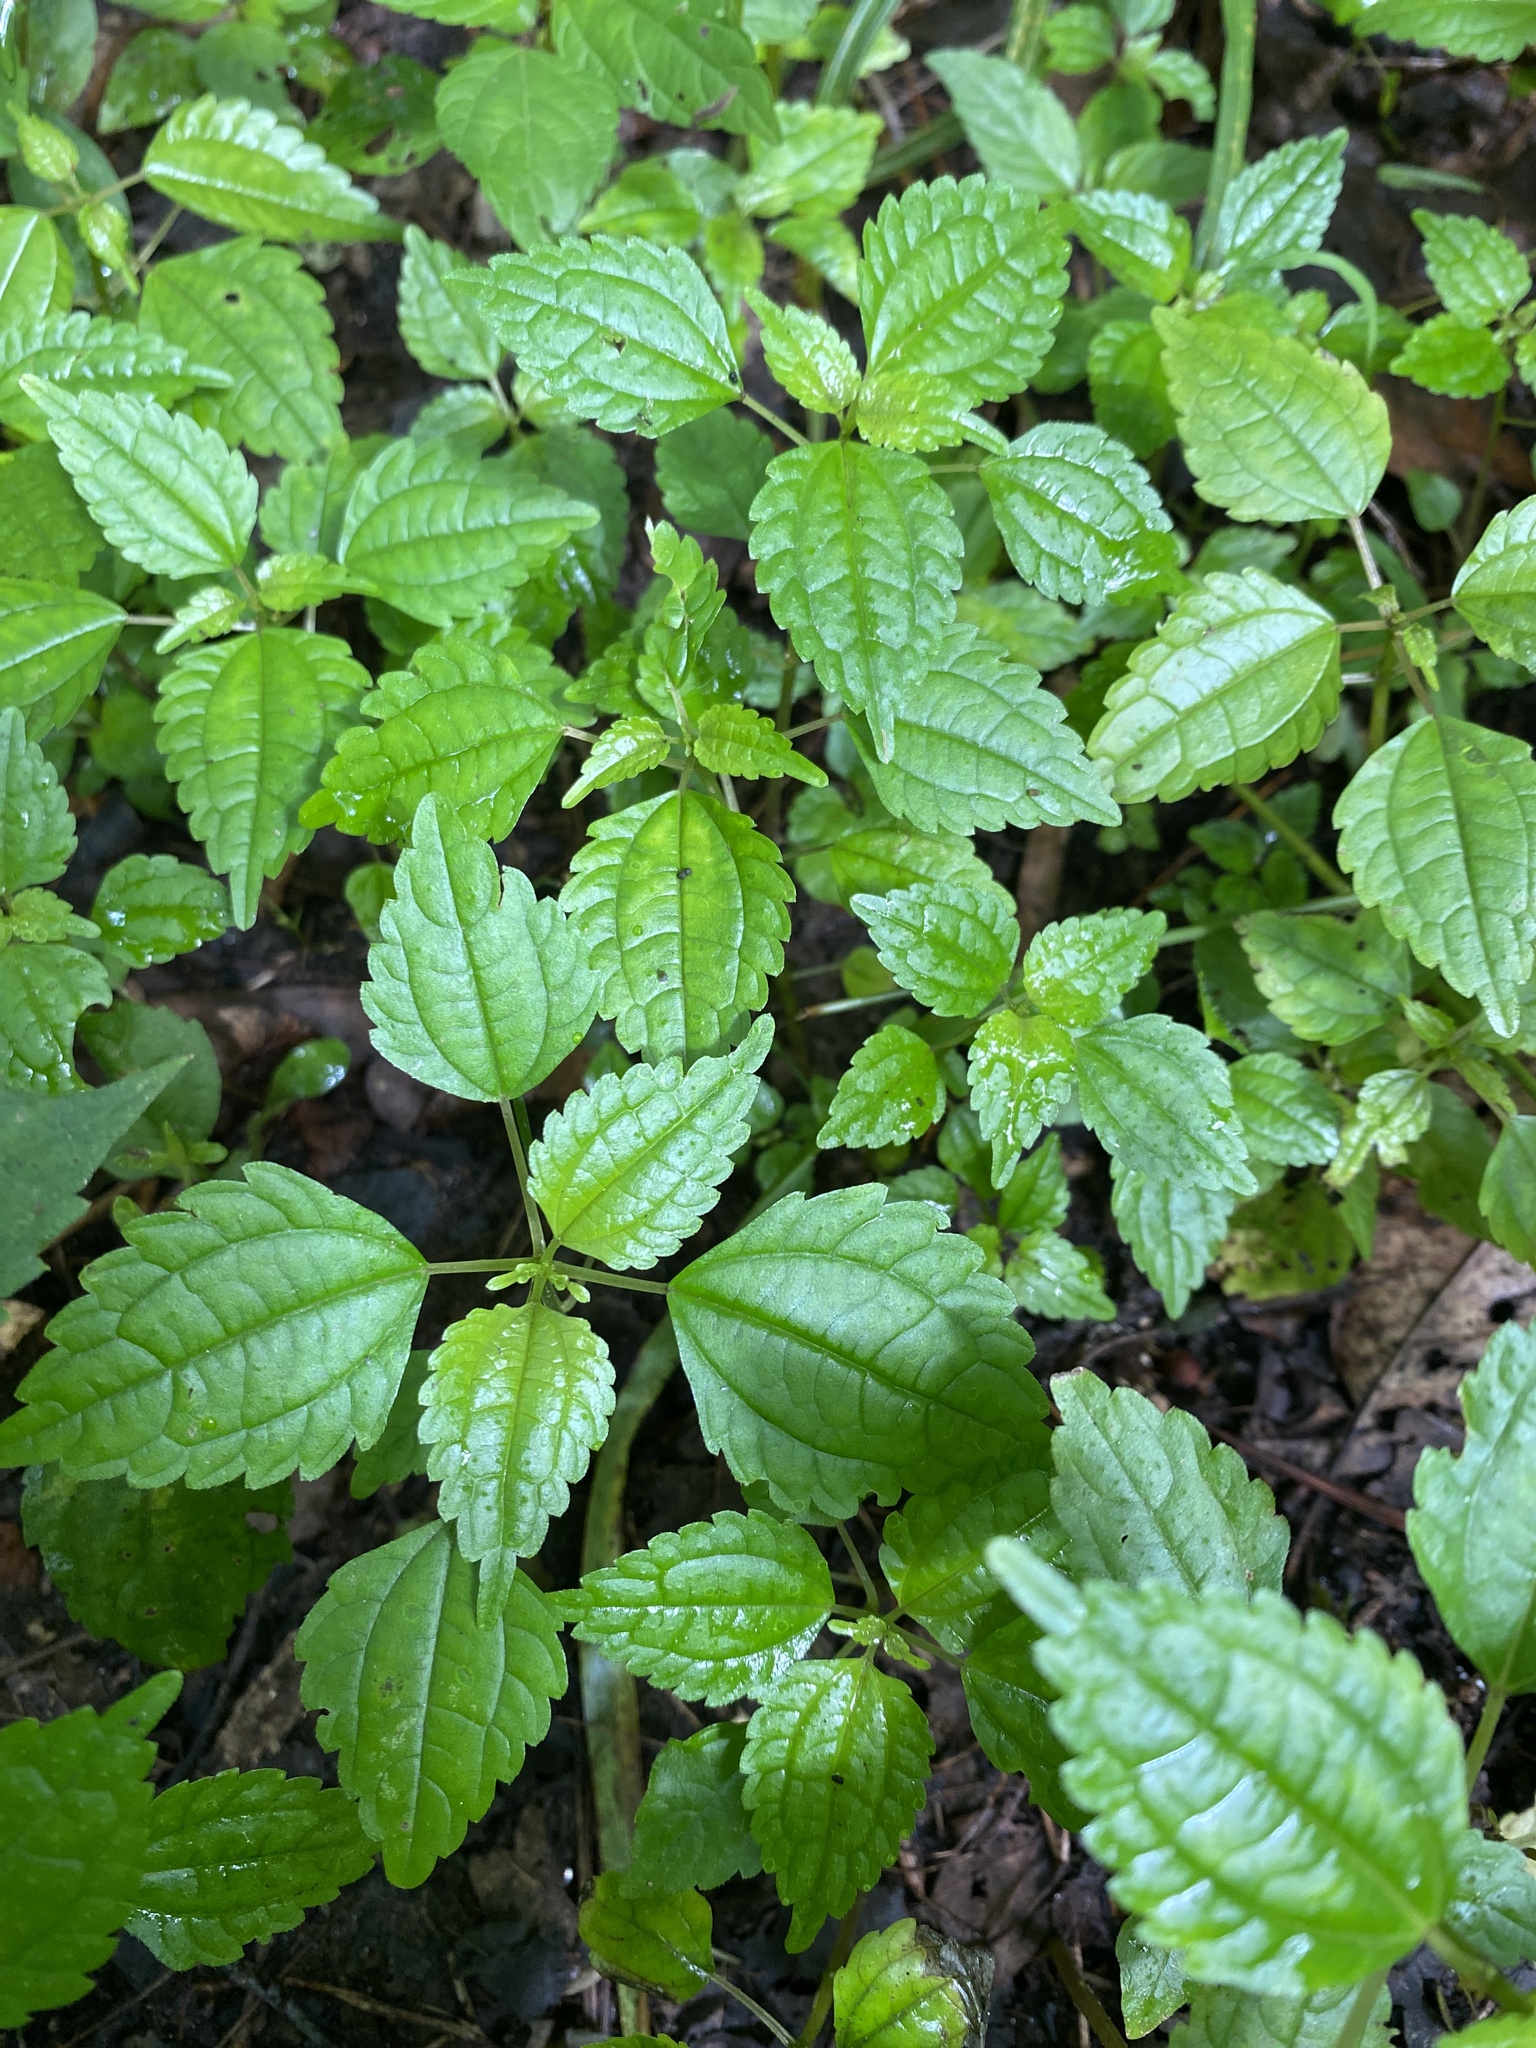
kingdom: Plantae
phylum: Tracheophyta
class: Magnoliopsida
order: Rosales
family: Urticaceae
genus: Pilea
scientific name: Pilea pumila
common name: Clearweed
